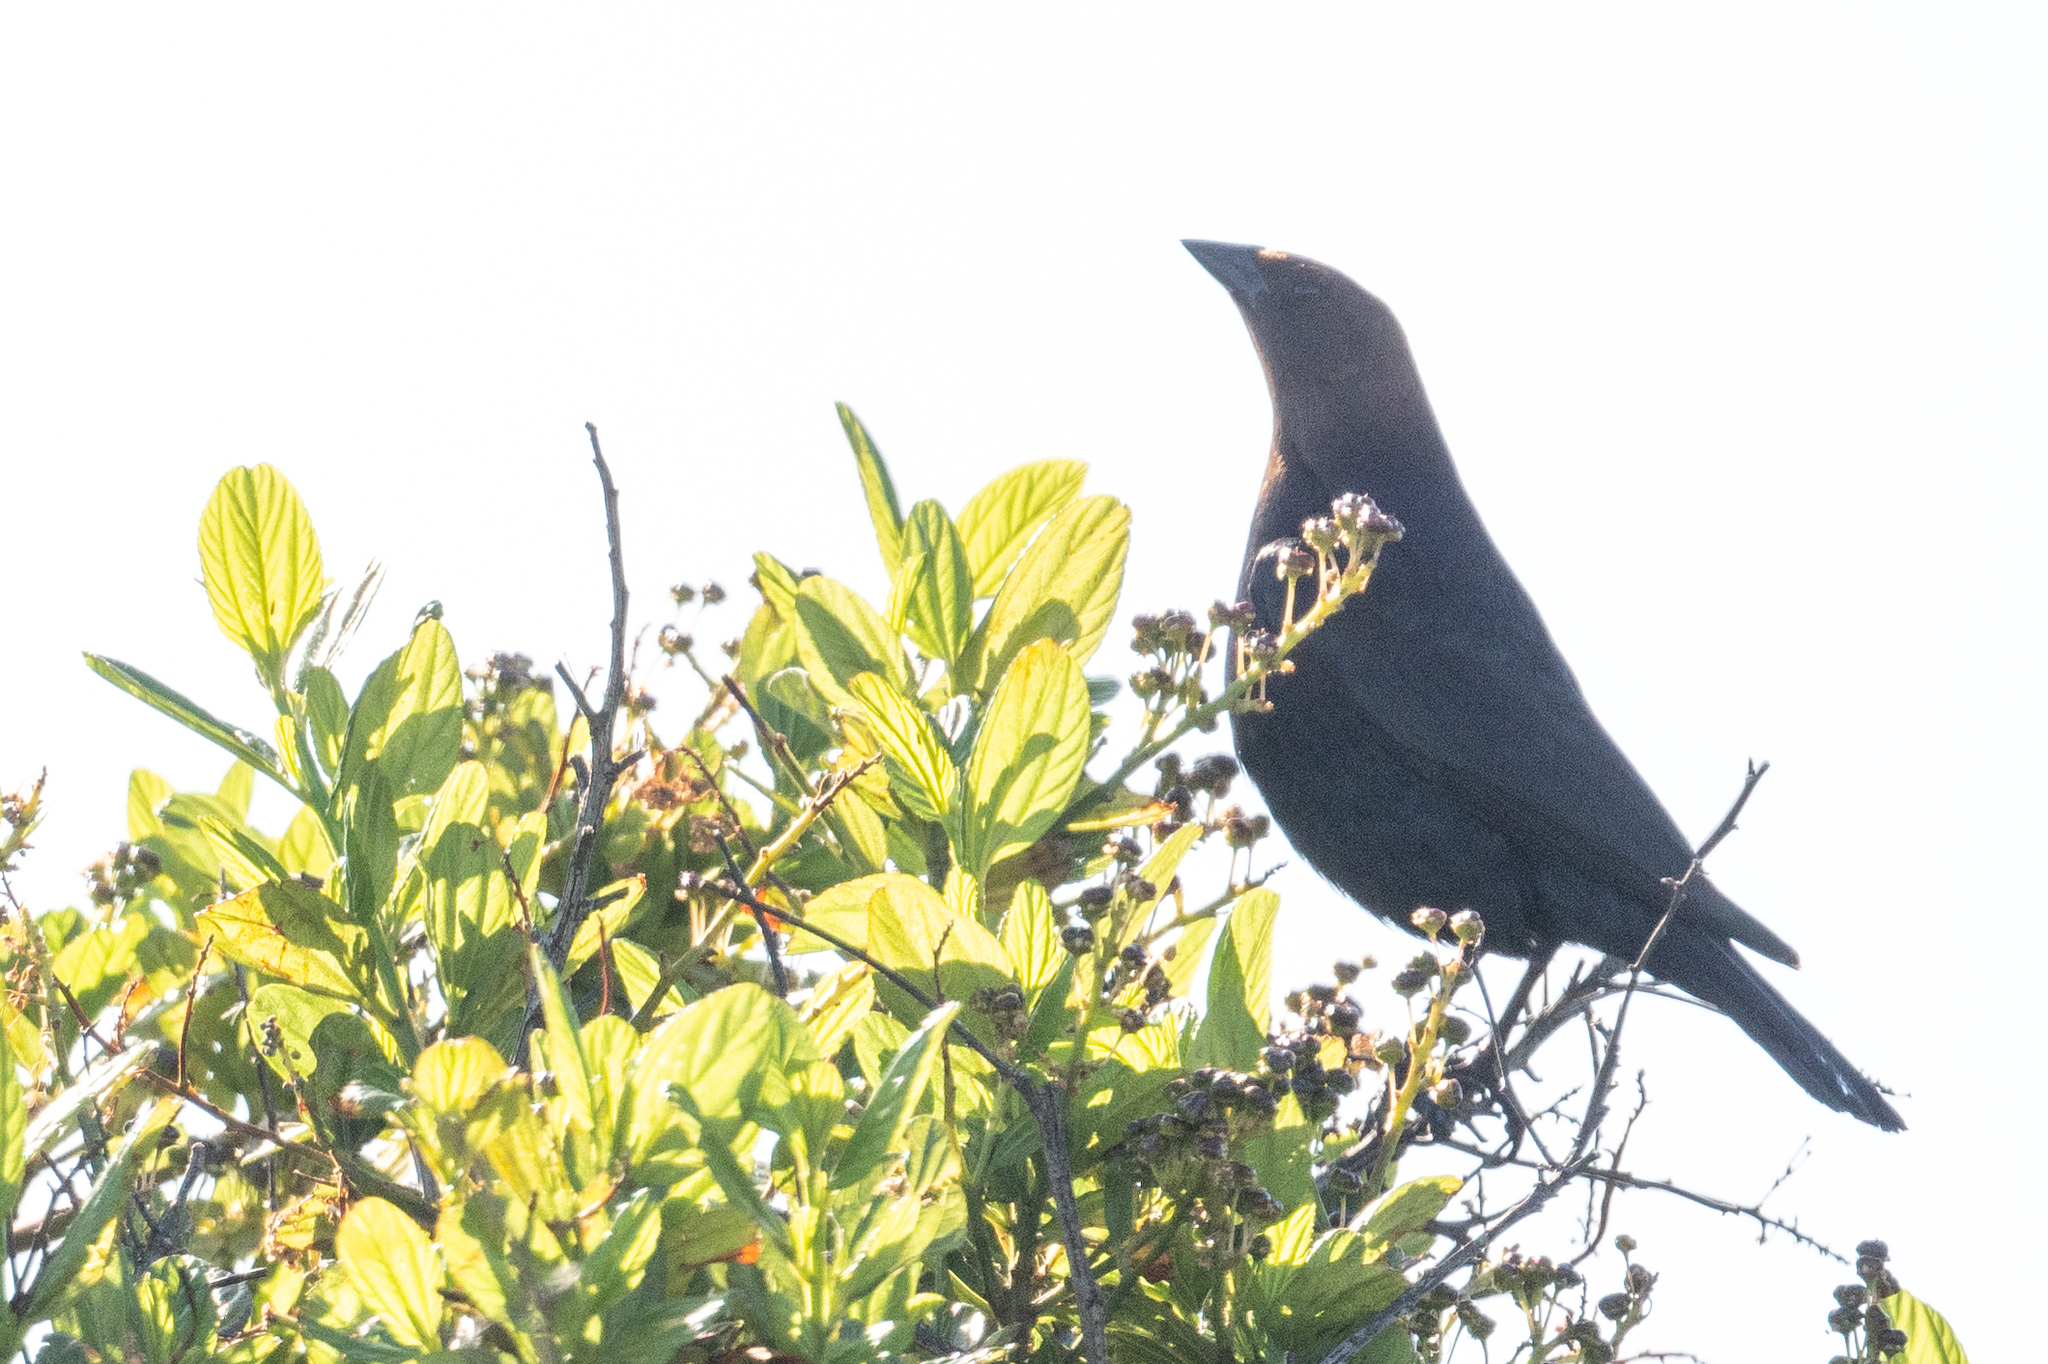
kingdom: Animalia
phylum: Chordata
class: Aves
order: Passeriformes
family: Icteridae
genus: Molothrus
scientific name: Molothrus ater
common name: Brown-headed cowbird
